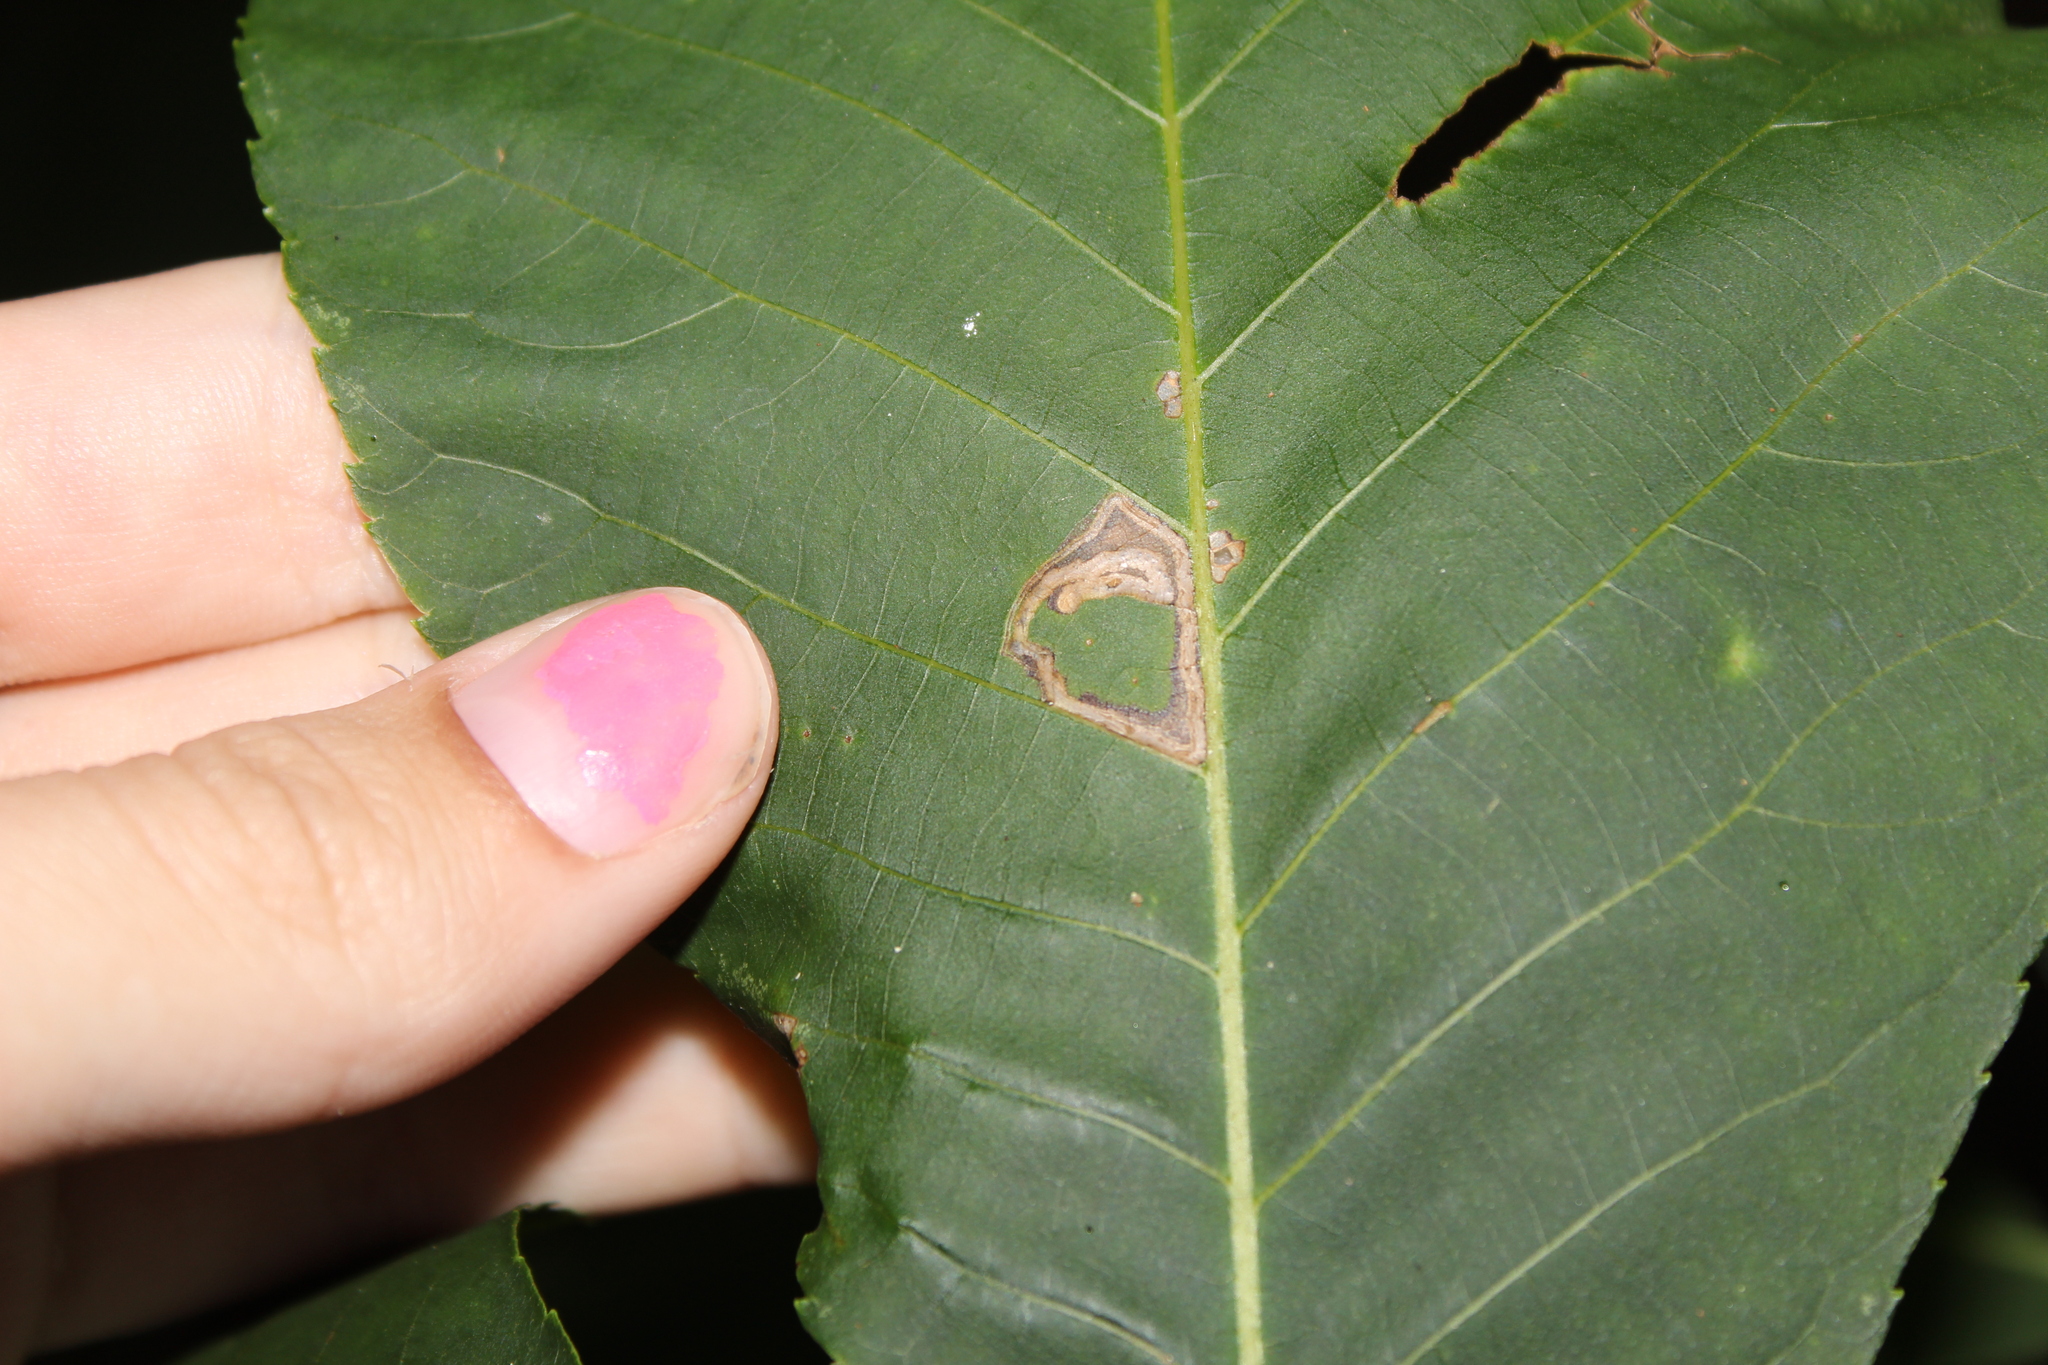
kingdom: Animalia
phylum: Arthropoda
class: Insecta
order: Lepidoptera
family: Nepticulidae
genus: Stigmella
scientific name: Stigmella caryaefoliella
